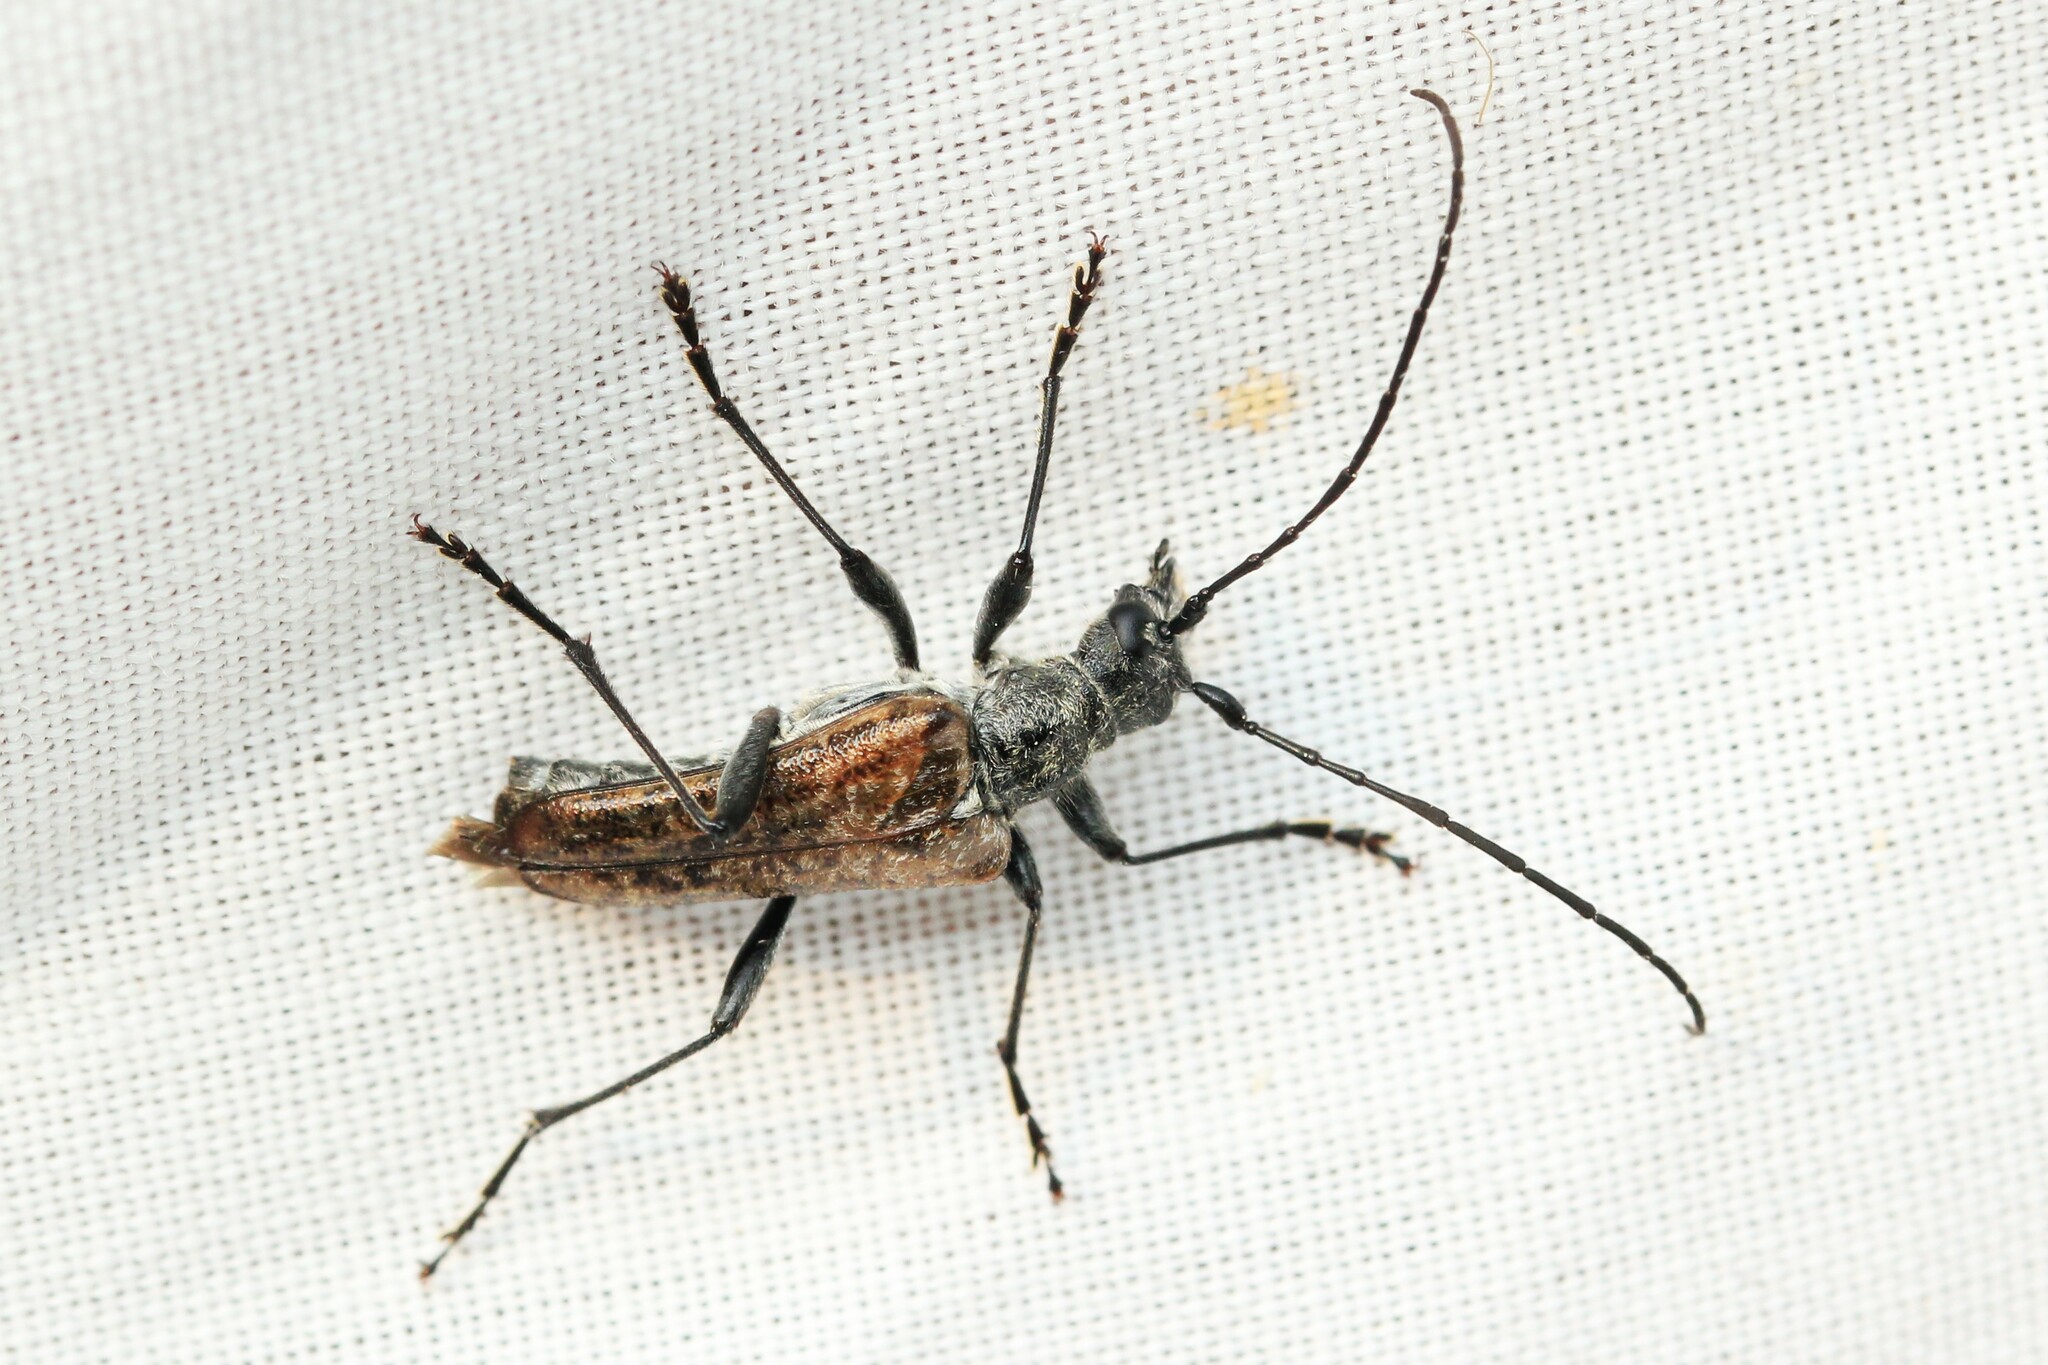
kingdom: Animalia
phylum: Arthropoda
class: Insecta
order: Coleoptera
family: Cerambycidae
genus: Anthophylax
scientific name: Anthophylax attenuatus
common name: Mottled longhorned beetle
